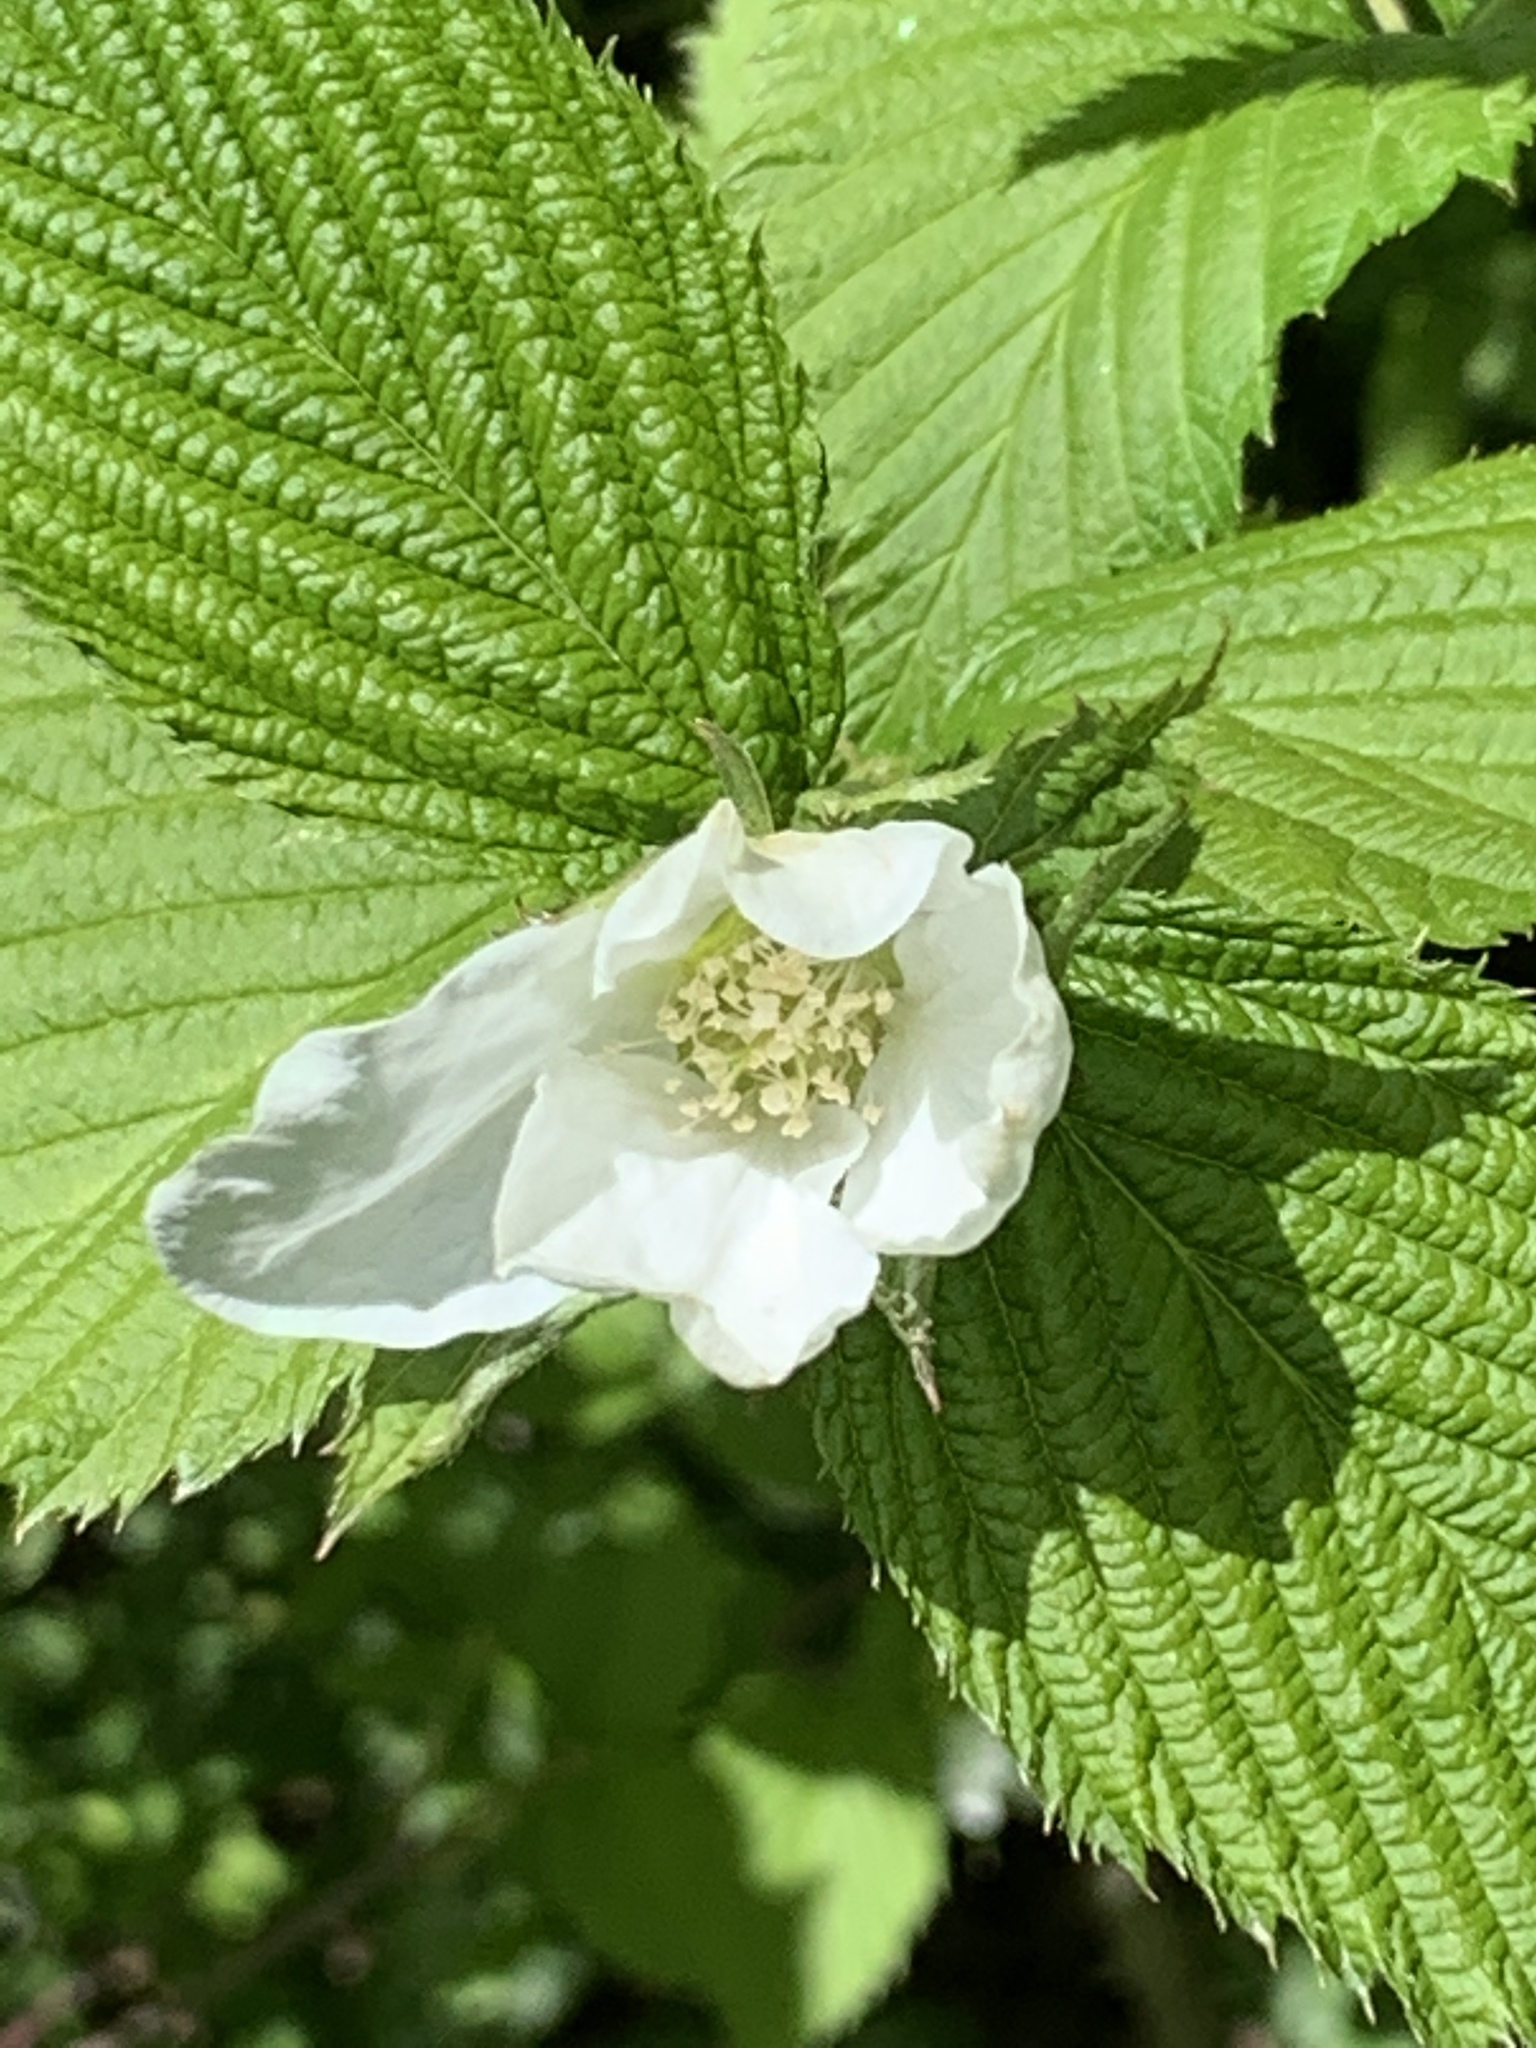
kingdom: Plantae
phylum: Tracheophyta
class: Magnoliopsida
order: Rosales
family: Rosaceae
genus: Rhodotypos
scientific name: Rhodotypos scandens
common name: Jetbead
